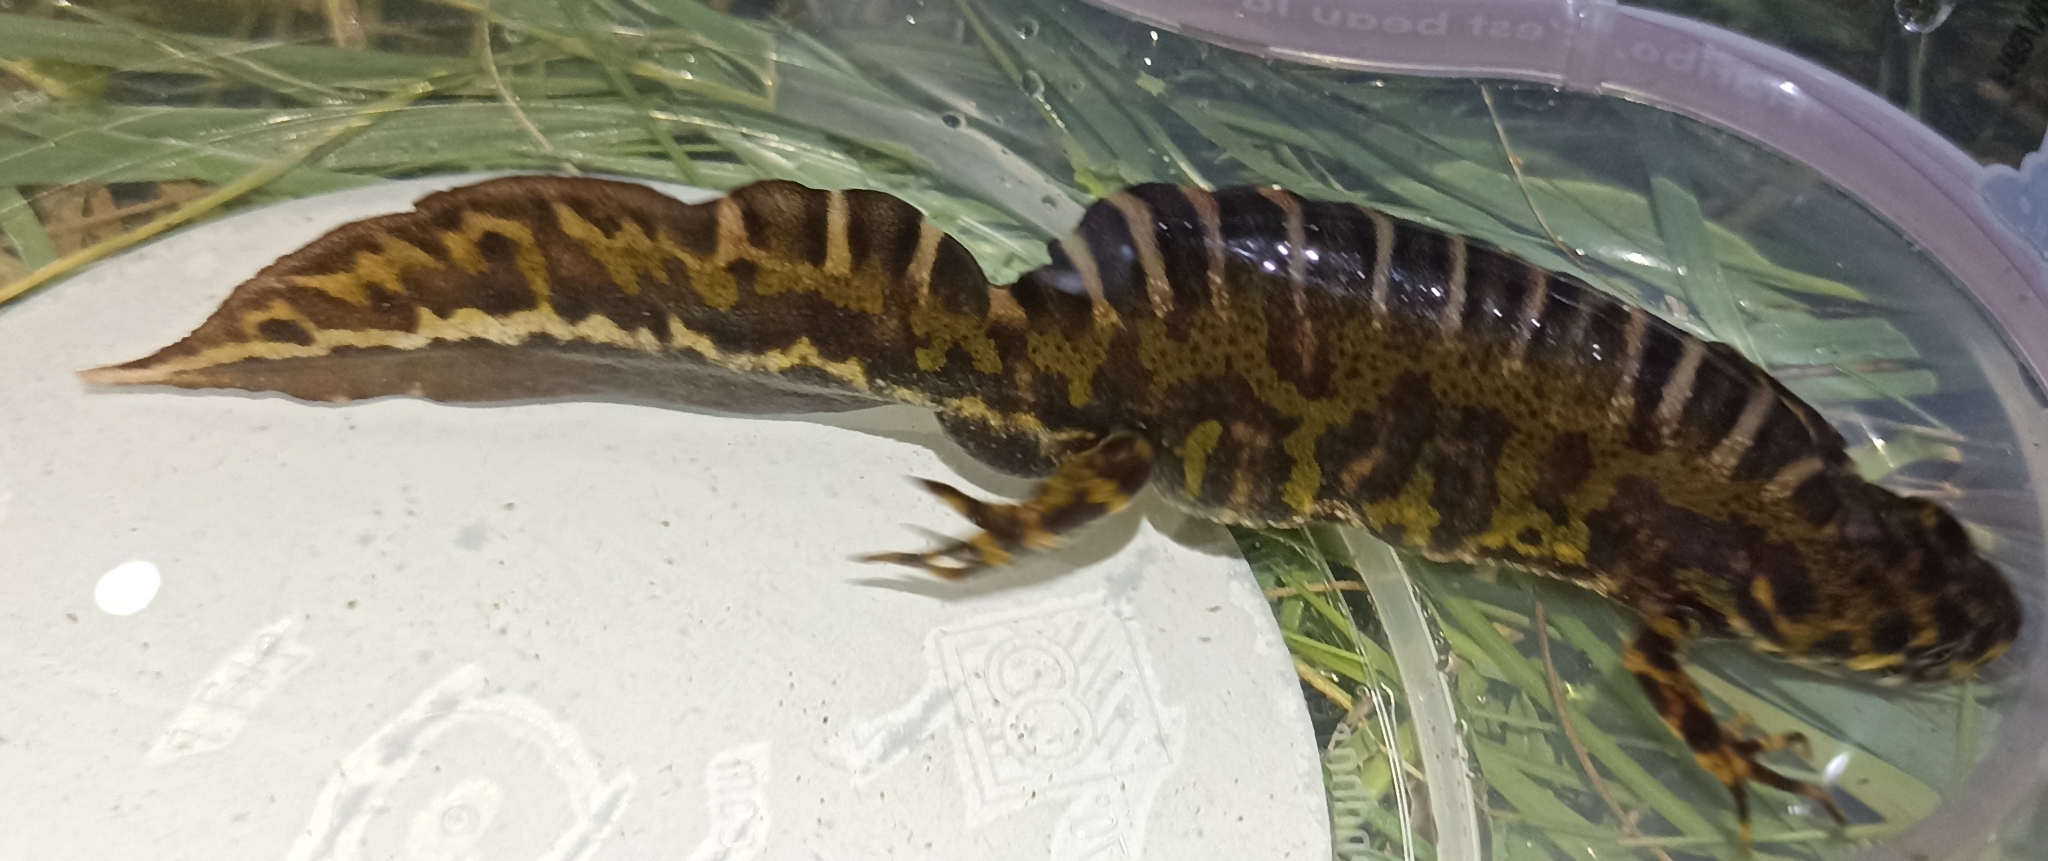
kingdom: Animalia
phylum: Chordata
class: Amphibia
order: Caudata
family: Salamandridae
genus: Triturus
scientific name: Triturus marmoratus
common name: Marbled newt
